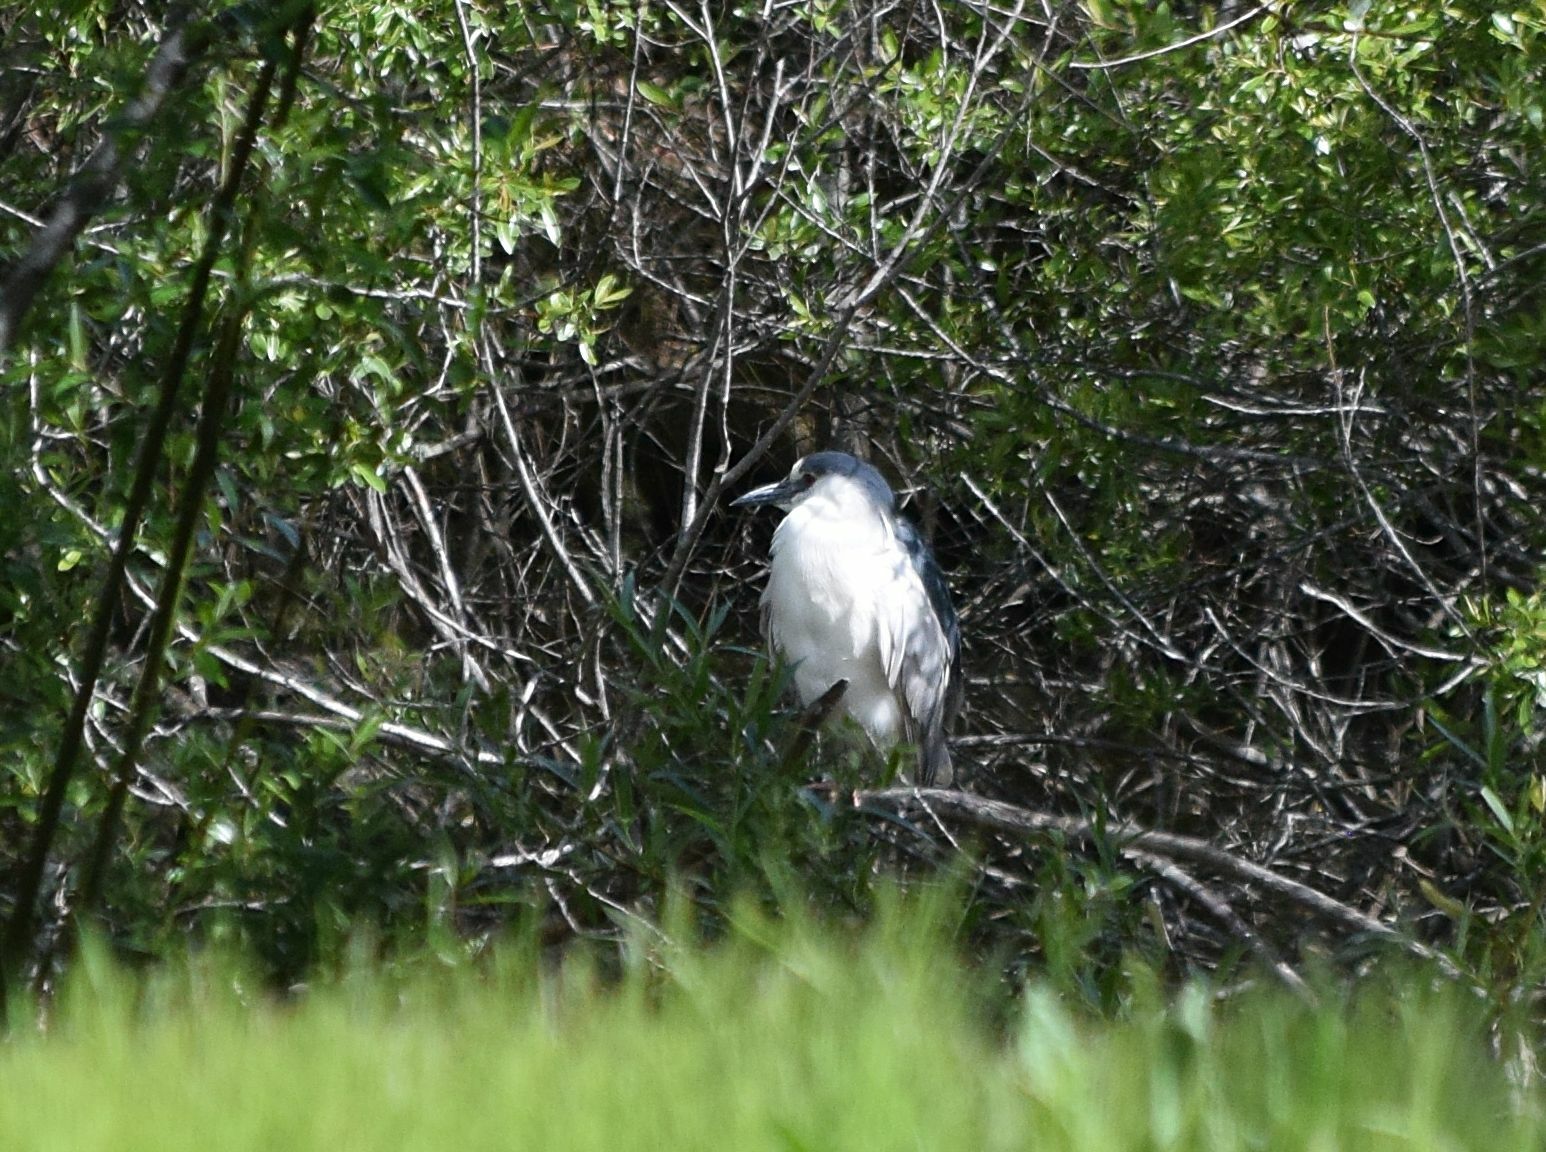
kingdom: Animalia
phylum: Chordata
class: Aves
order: Pelecaniformes
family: Ardeidae
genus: Nycticorax
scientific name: Nycticorax nycticorax
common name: Black-crowned night heron
